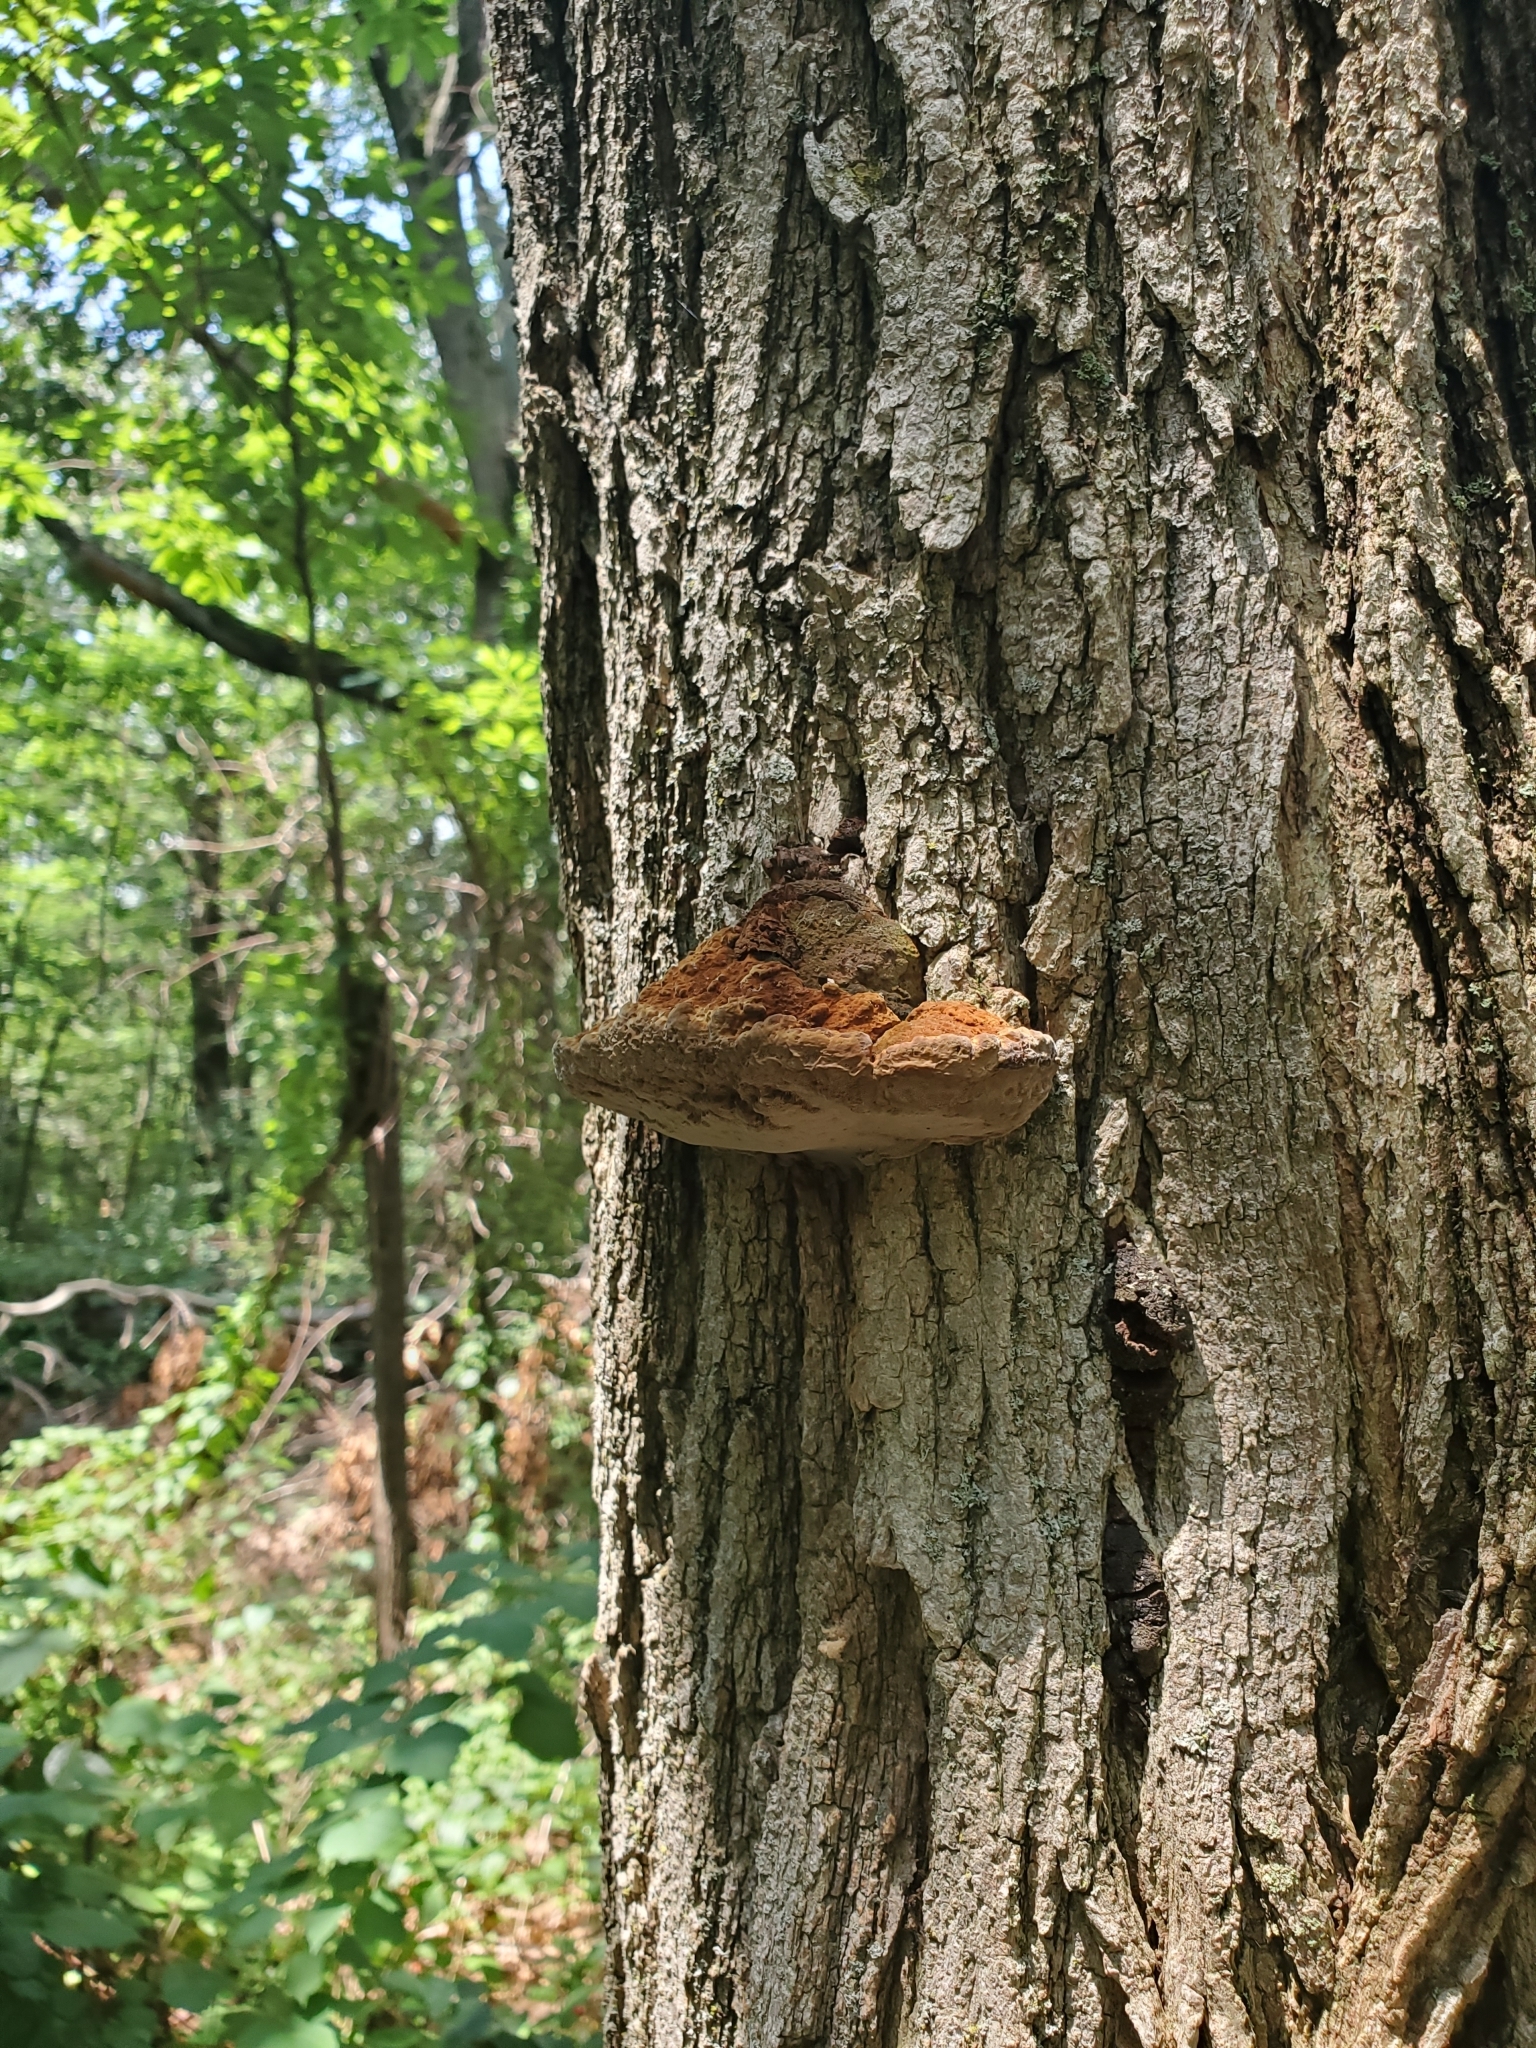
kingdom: Fungi
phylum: Basidiomycota
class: Agaricomycetes
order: Hymenochaetales
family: Hymenochaetaceae
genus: Phellinus
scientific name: Phellinus robiniae
